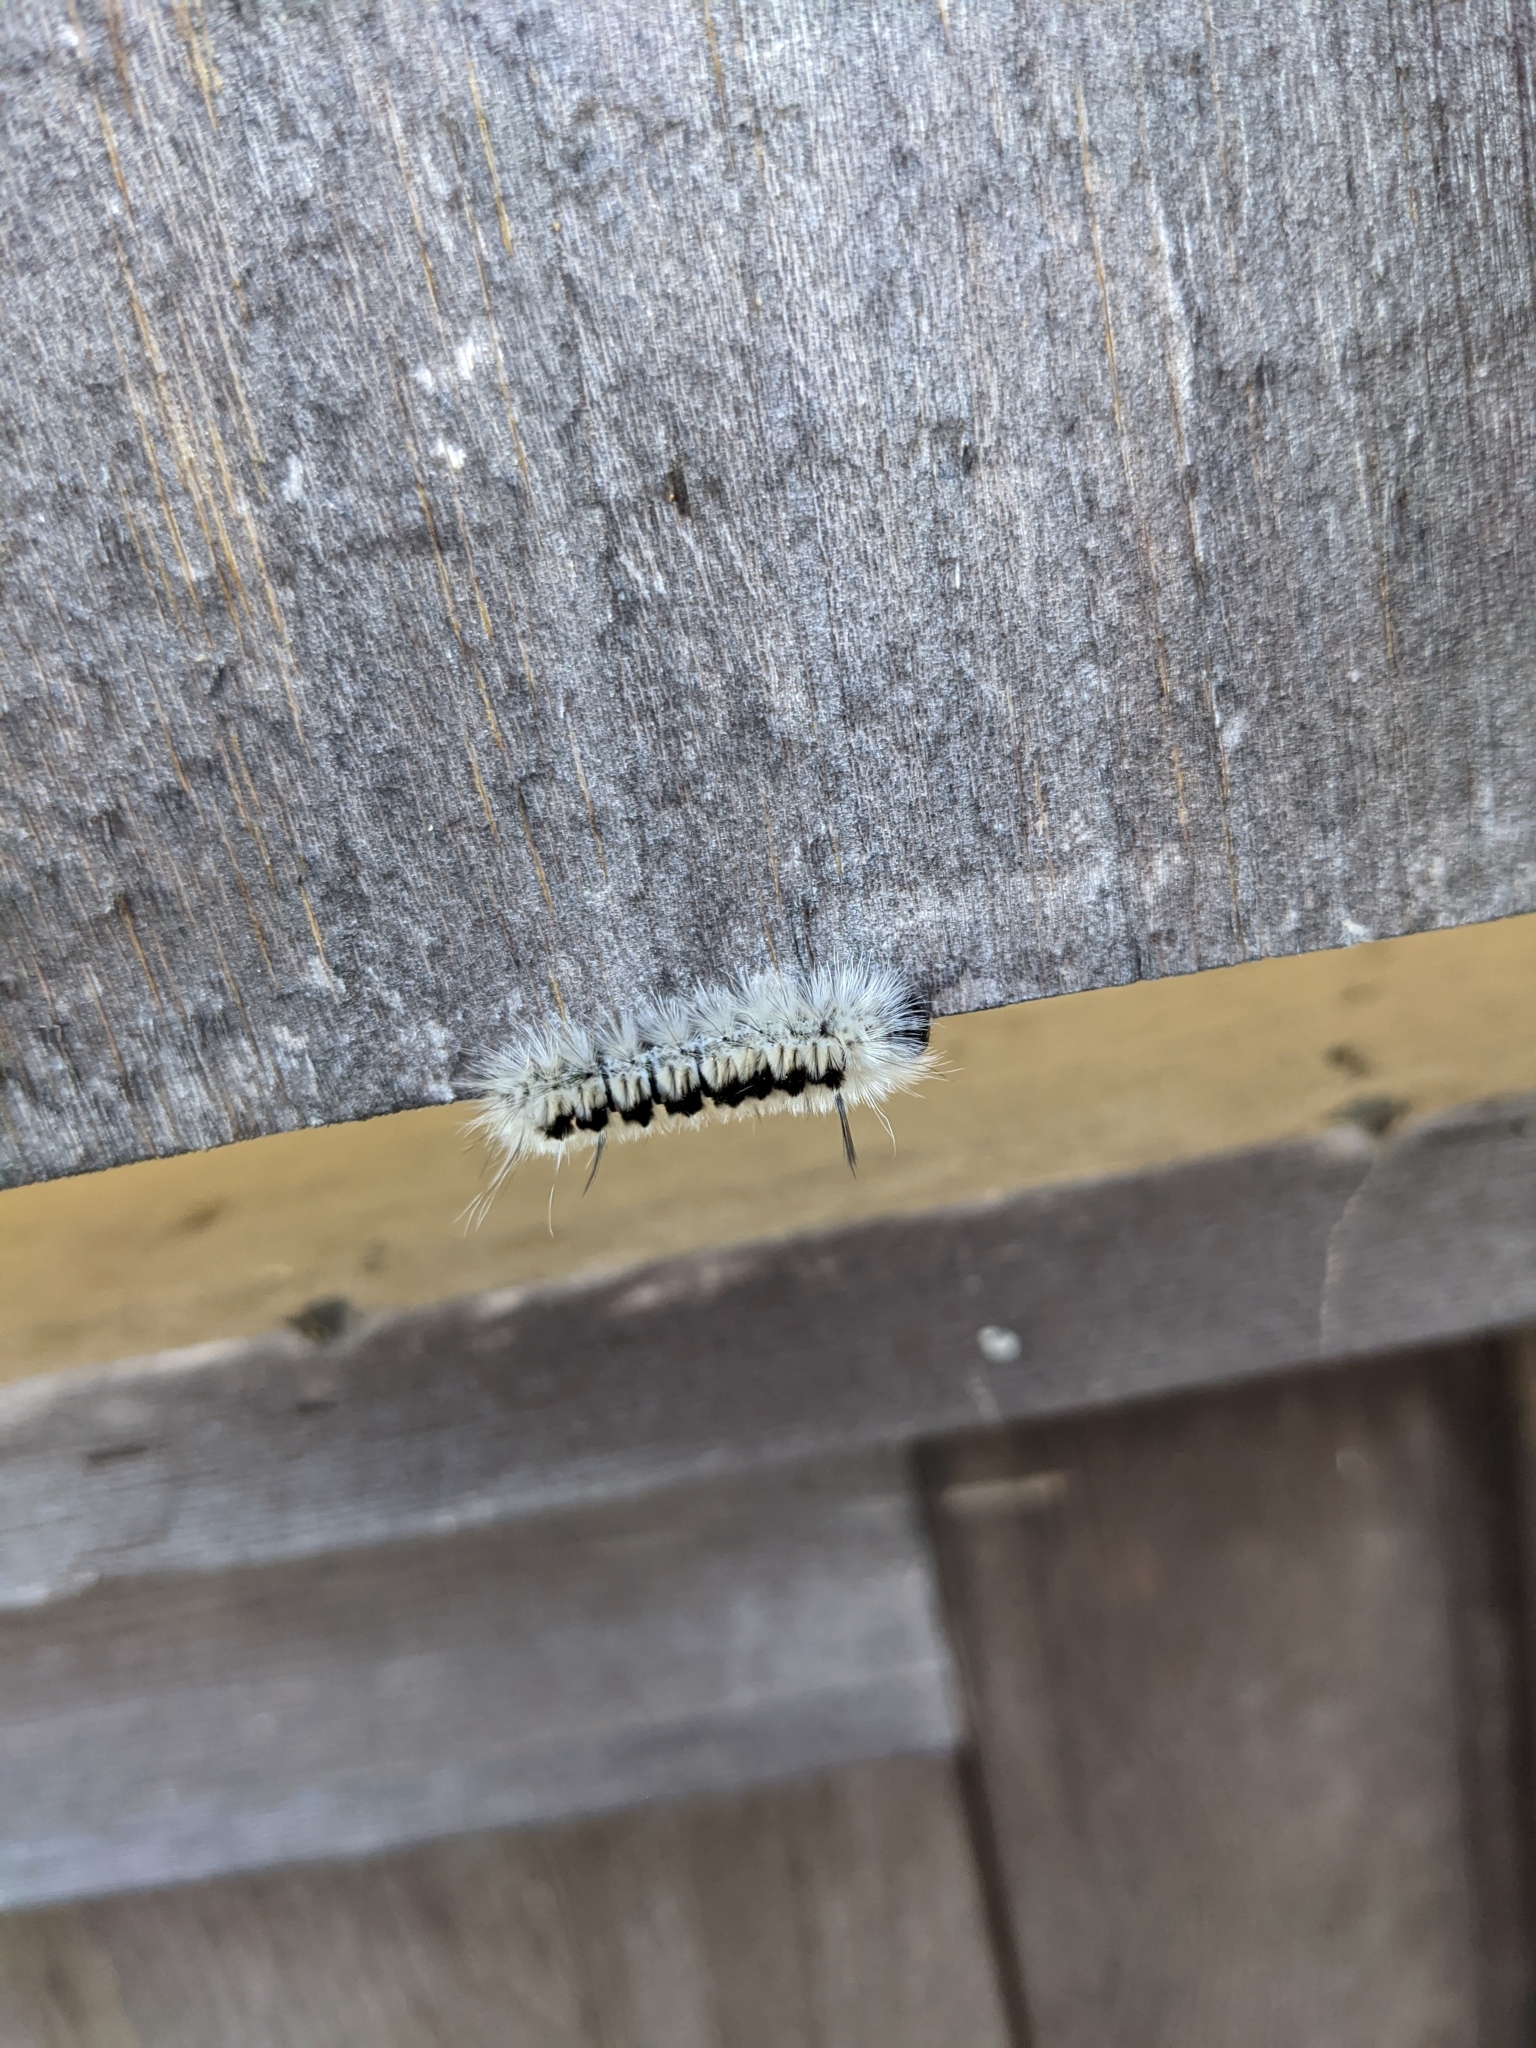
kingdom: Animalia
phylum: Arthropoda
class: Insecta
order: Lepidoptera
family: Erebidae
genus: Lophocampa
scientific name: Lophocampa caryae
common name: Hickory tussock moth
